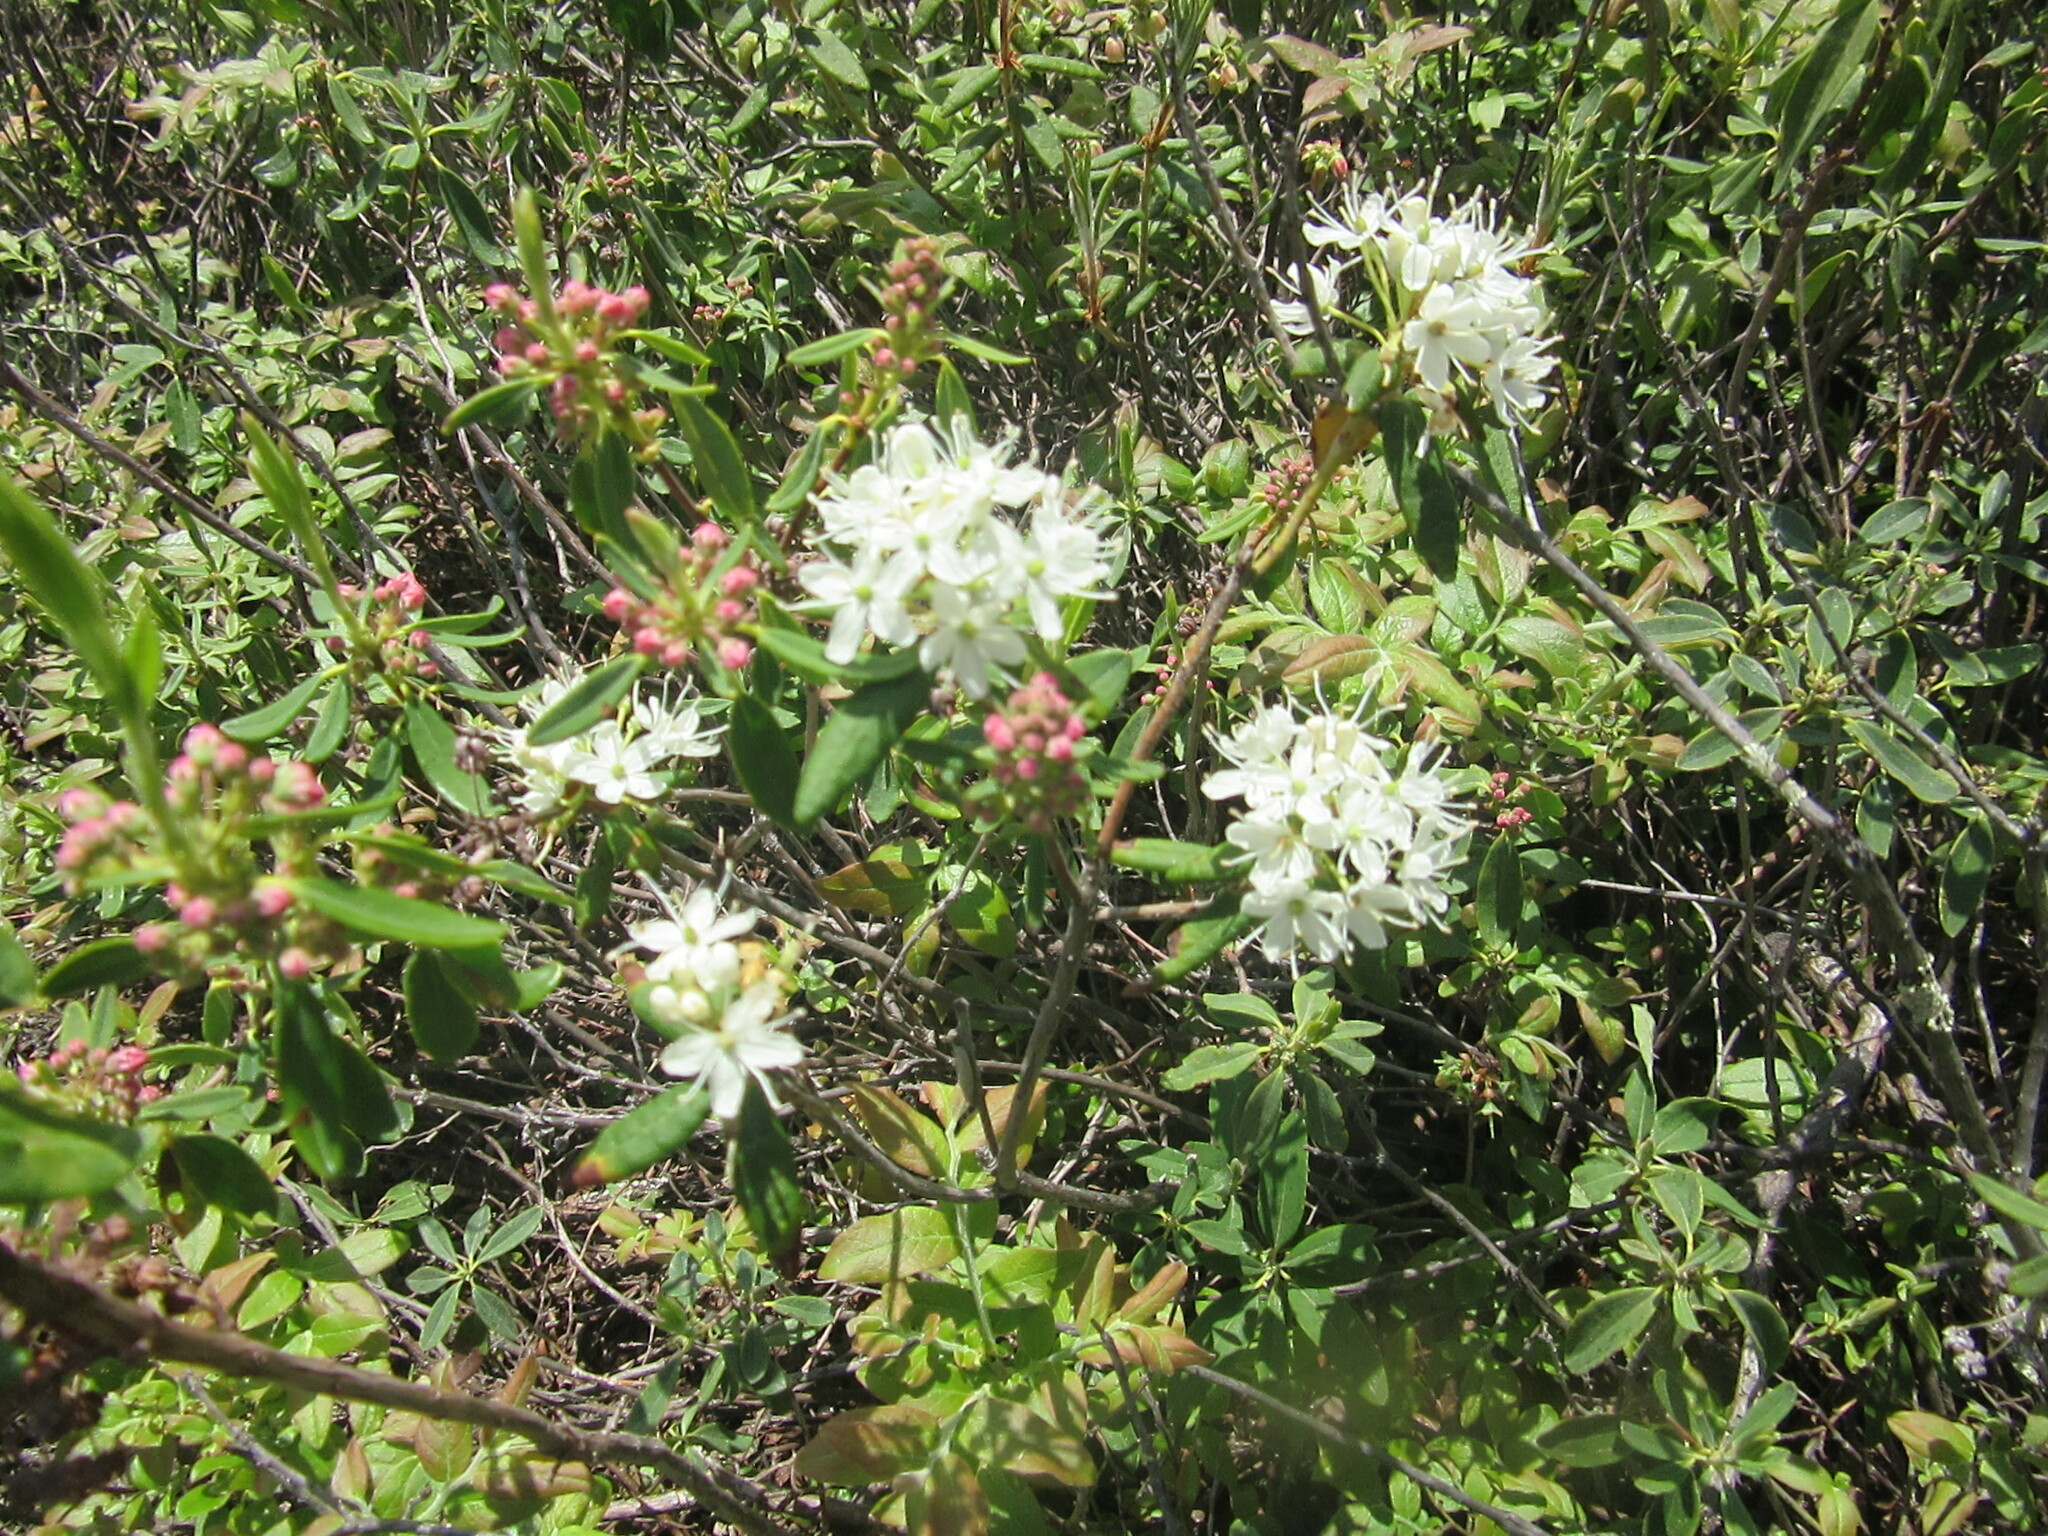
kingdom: Plantae
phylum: Tracheophyta
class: Magnoliopsida
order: Ericales
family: Ericaceae
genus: Rhododendron
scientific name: Rhododendron groenlandicum
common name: Bog labrador tea
